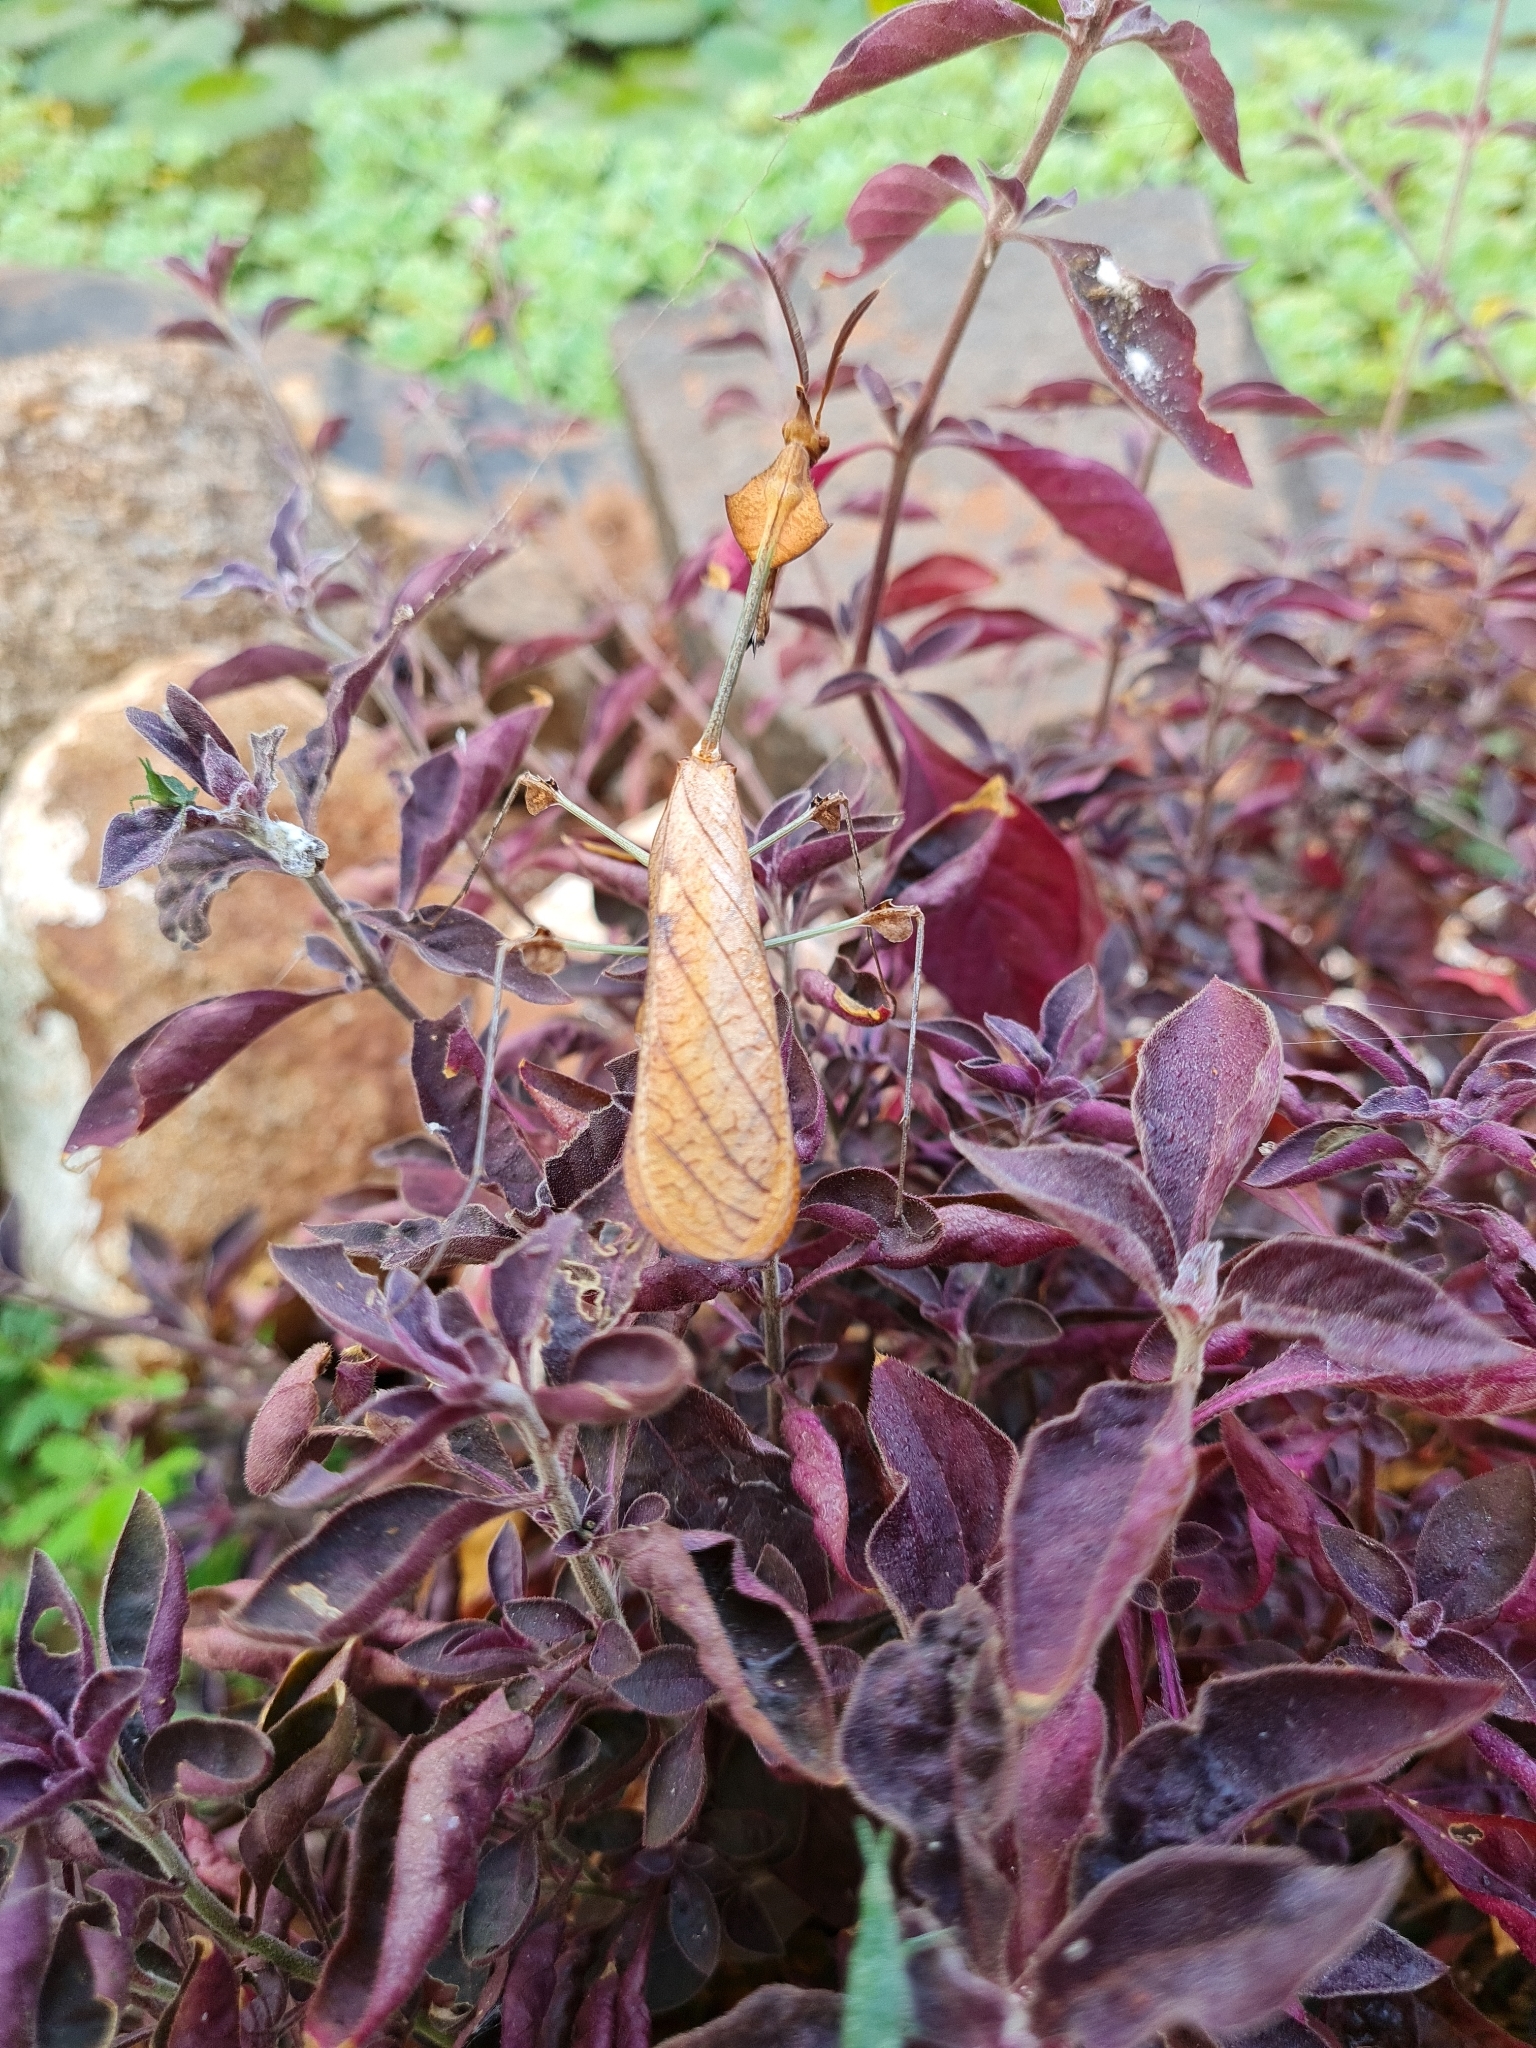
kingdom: Animalia
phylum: Arthropoda
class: Insecta
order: Mantodea
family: Empusidae
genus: Gongylus
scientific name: Gongylus gongylodes
